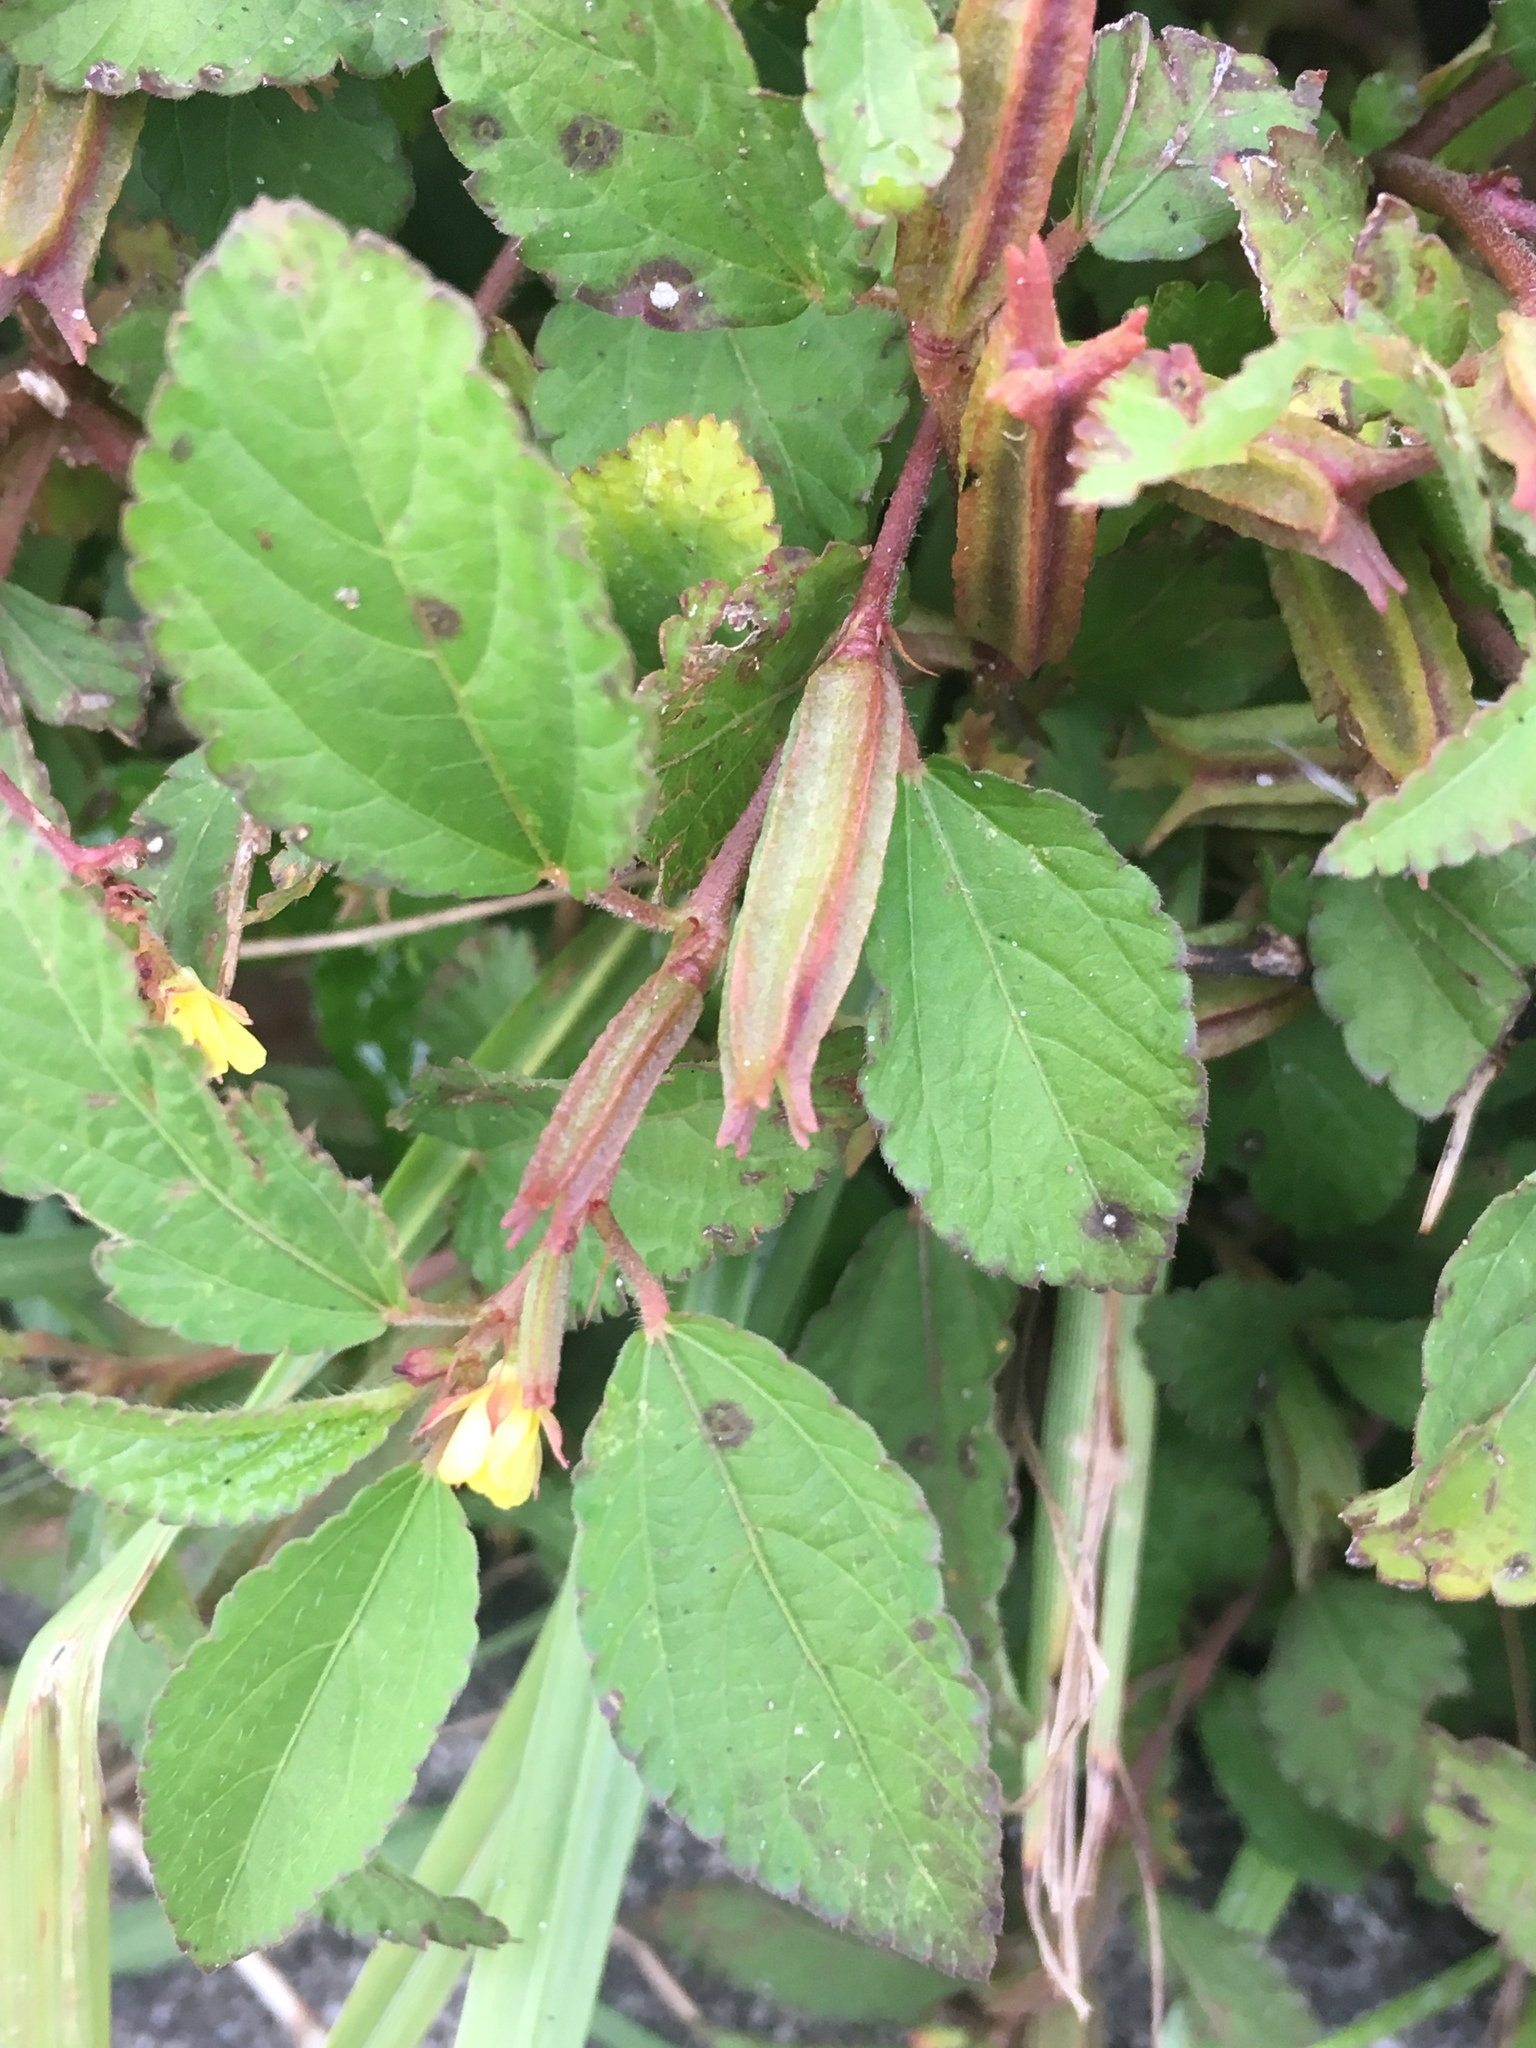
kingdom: Plantae
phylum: Tracheophyta
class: Magnoliopsida
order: Malvales
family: Malvaceae
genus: Corchorus
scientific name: Corchorus aestuans
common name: Jute
